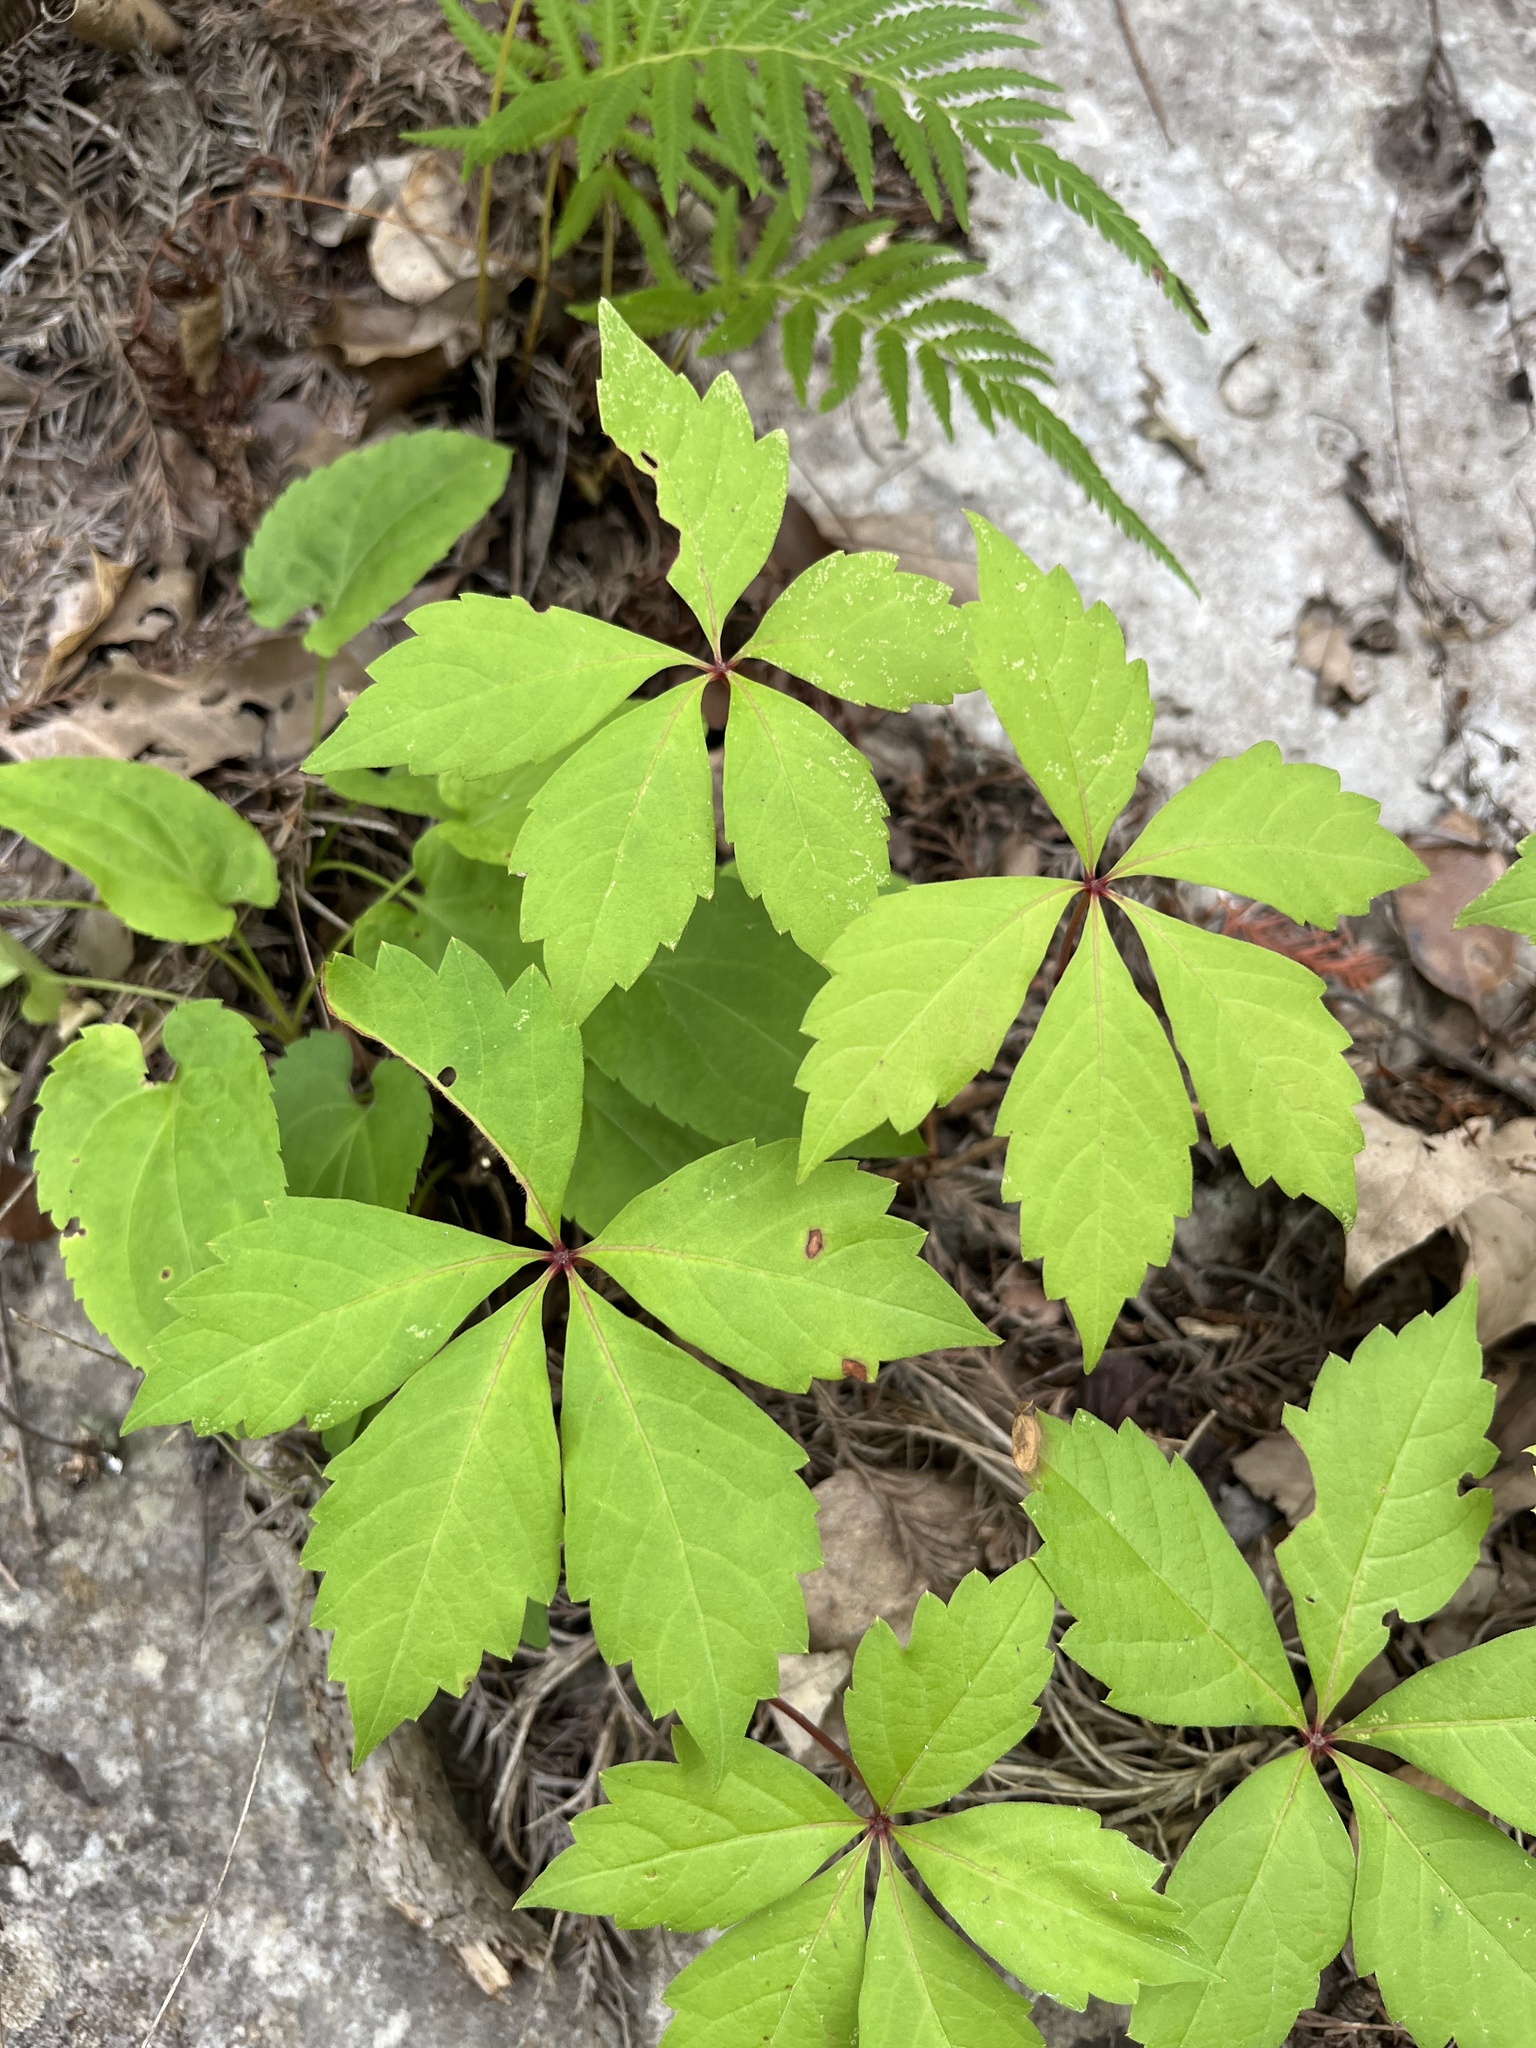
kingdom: Plantae
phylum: Tracheophyta
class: Magnoliopsida
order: Vitales
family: Vitaceae
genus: Parthenocissus
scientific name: Parthenocissus quinquefolia
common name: Virginia-creeper
